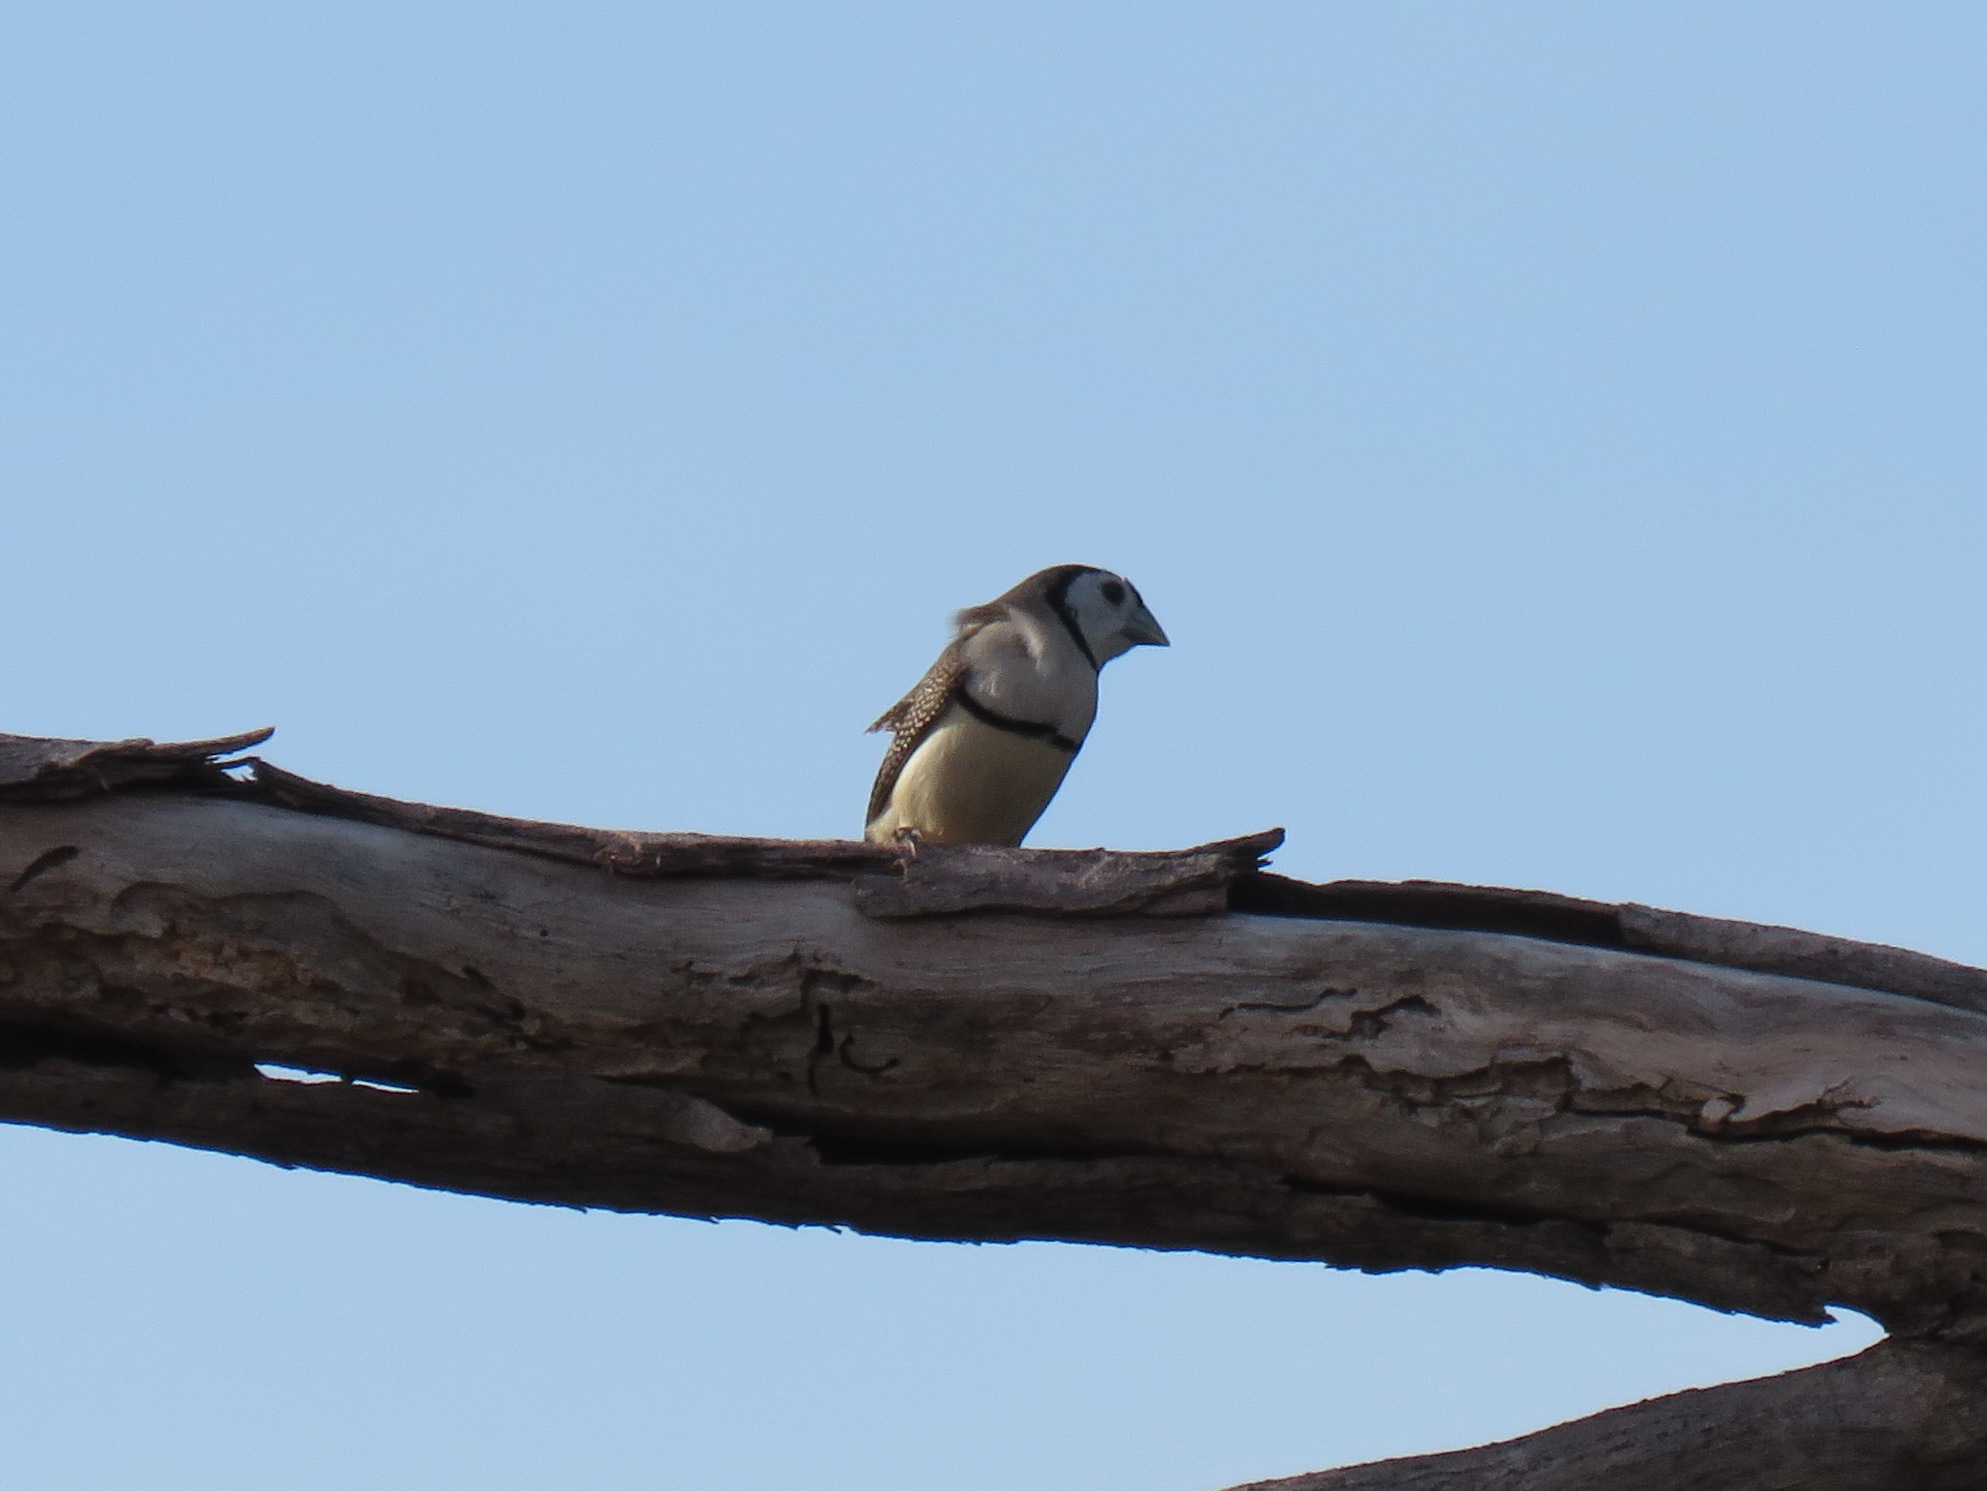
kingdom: Animalia
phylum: Chordata
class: Aves
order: Passeriformes
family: Estrildidae
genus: Taeniopygia
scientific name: Taeniopygia bichenovii
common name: Double-barred finch
